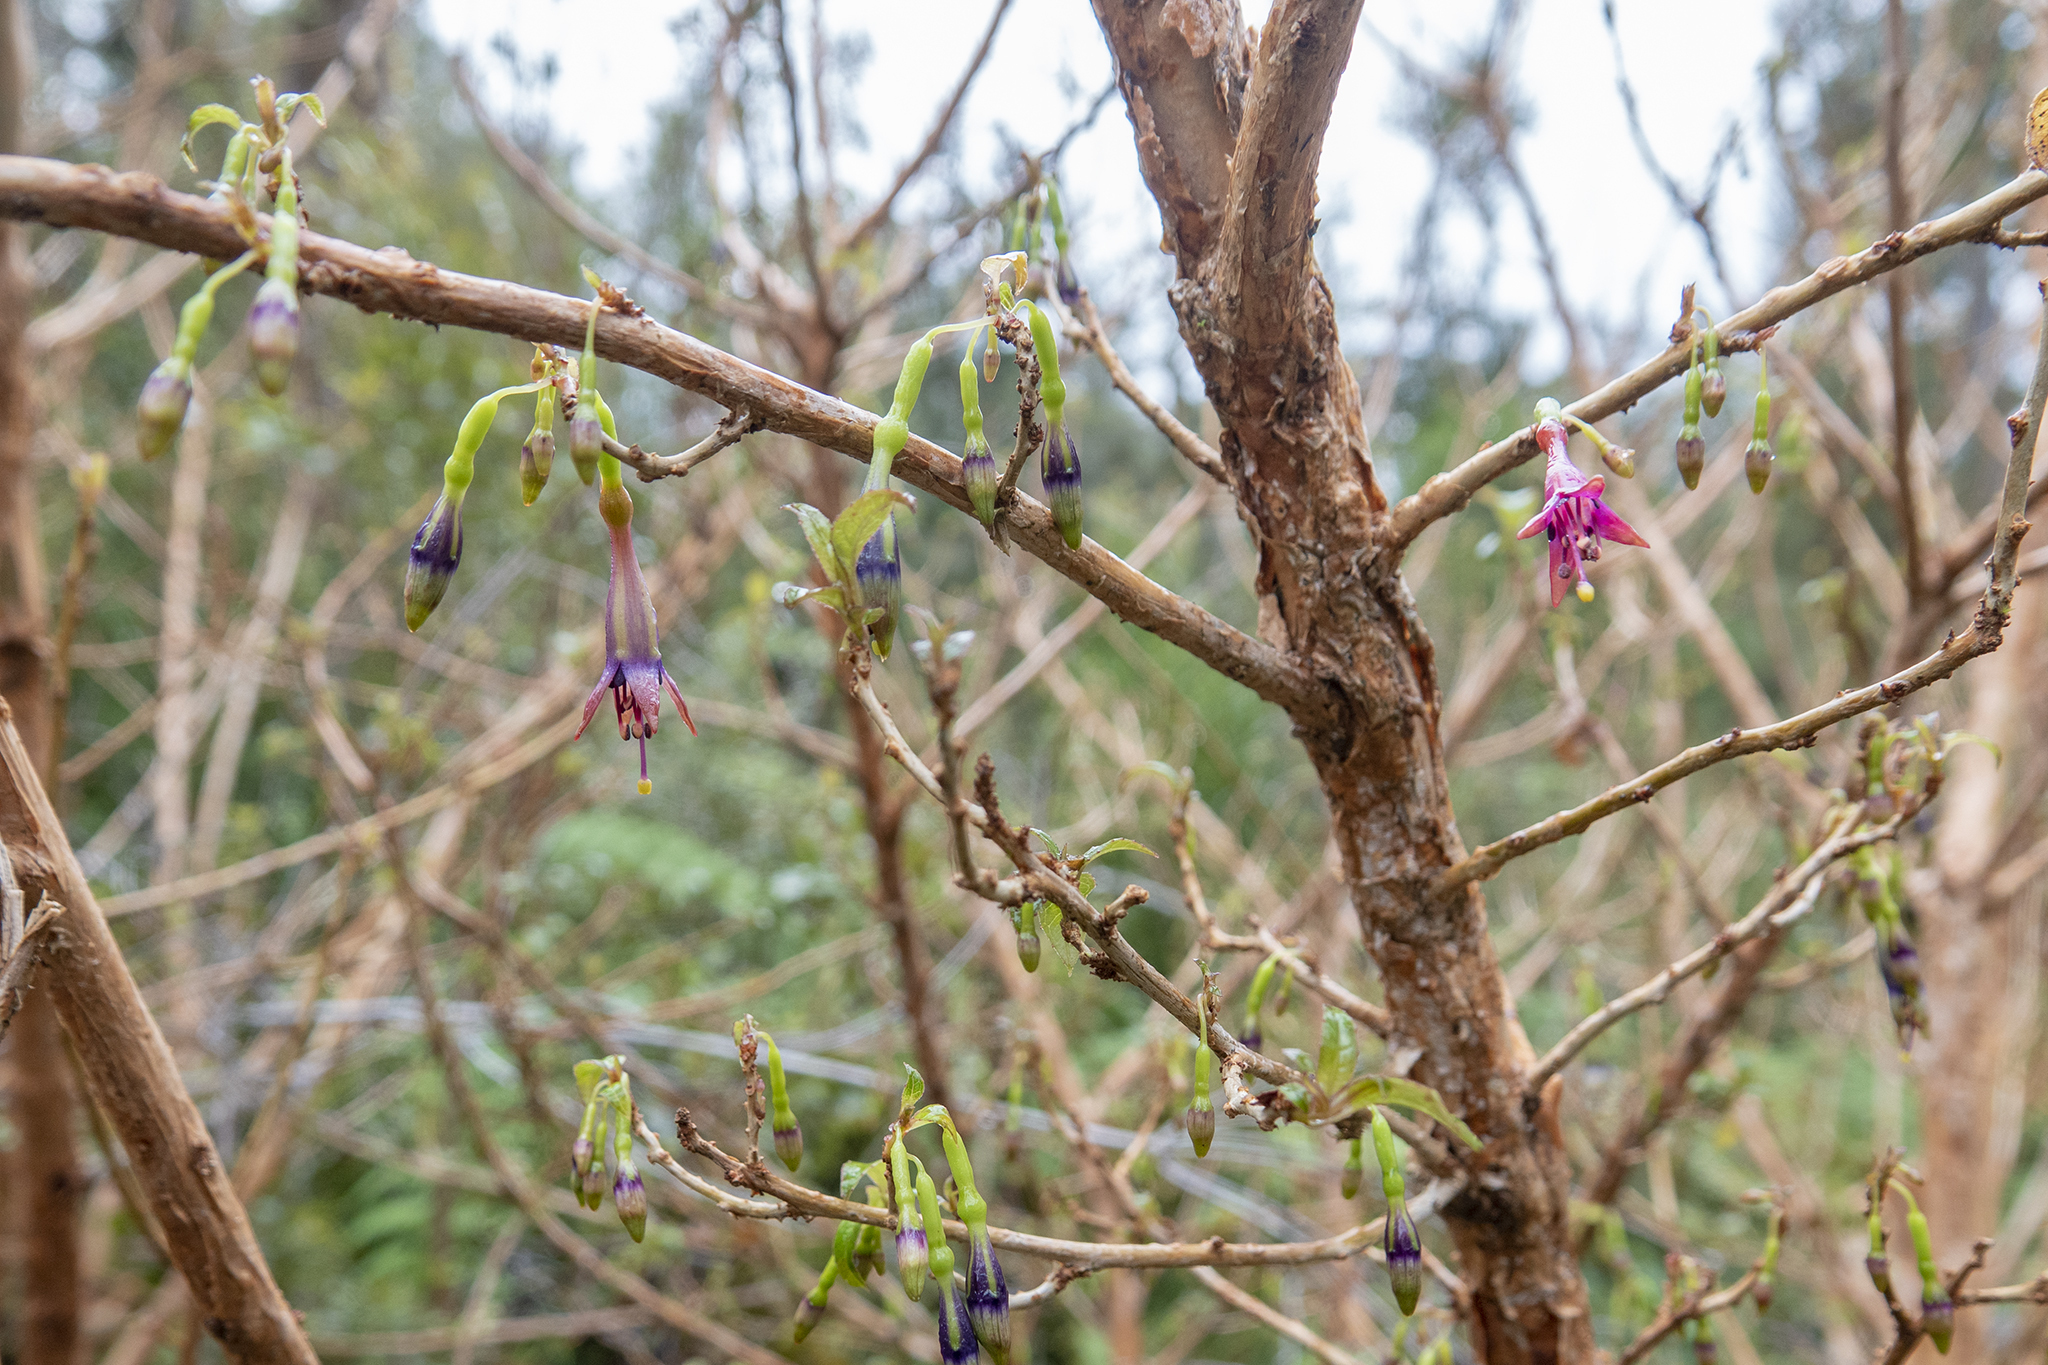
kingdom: Plantae
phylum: Tracheophyta
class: Magnoliopsida
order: Myrtales
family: Onagraceae
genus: Fuchsia
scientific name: Fuchsia excorticata
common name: Tree fuchsia
